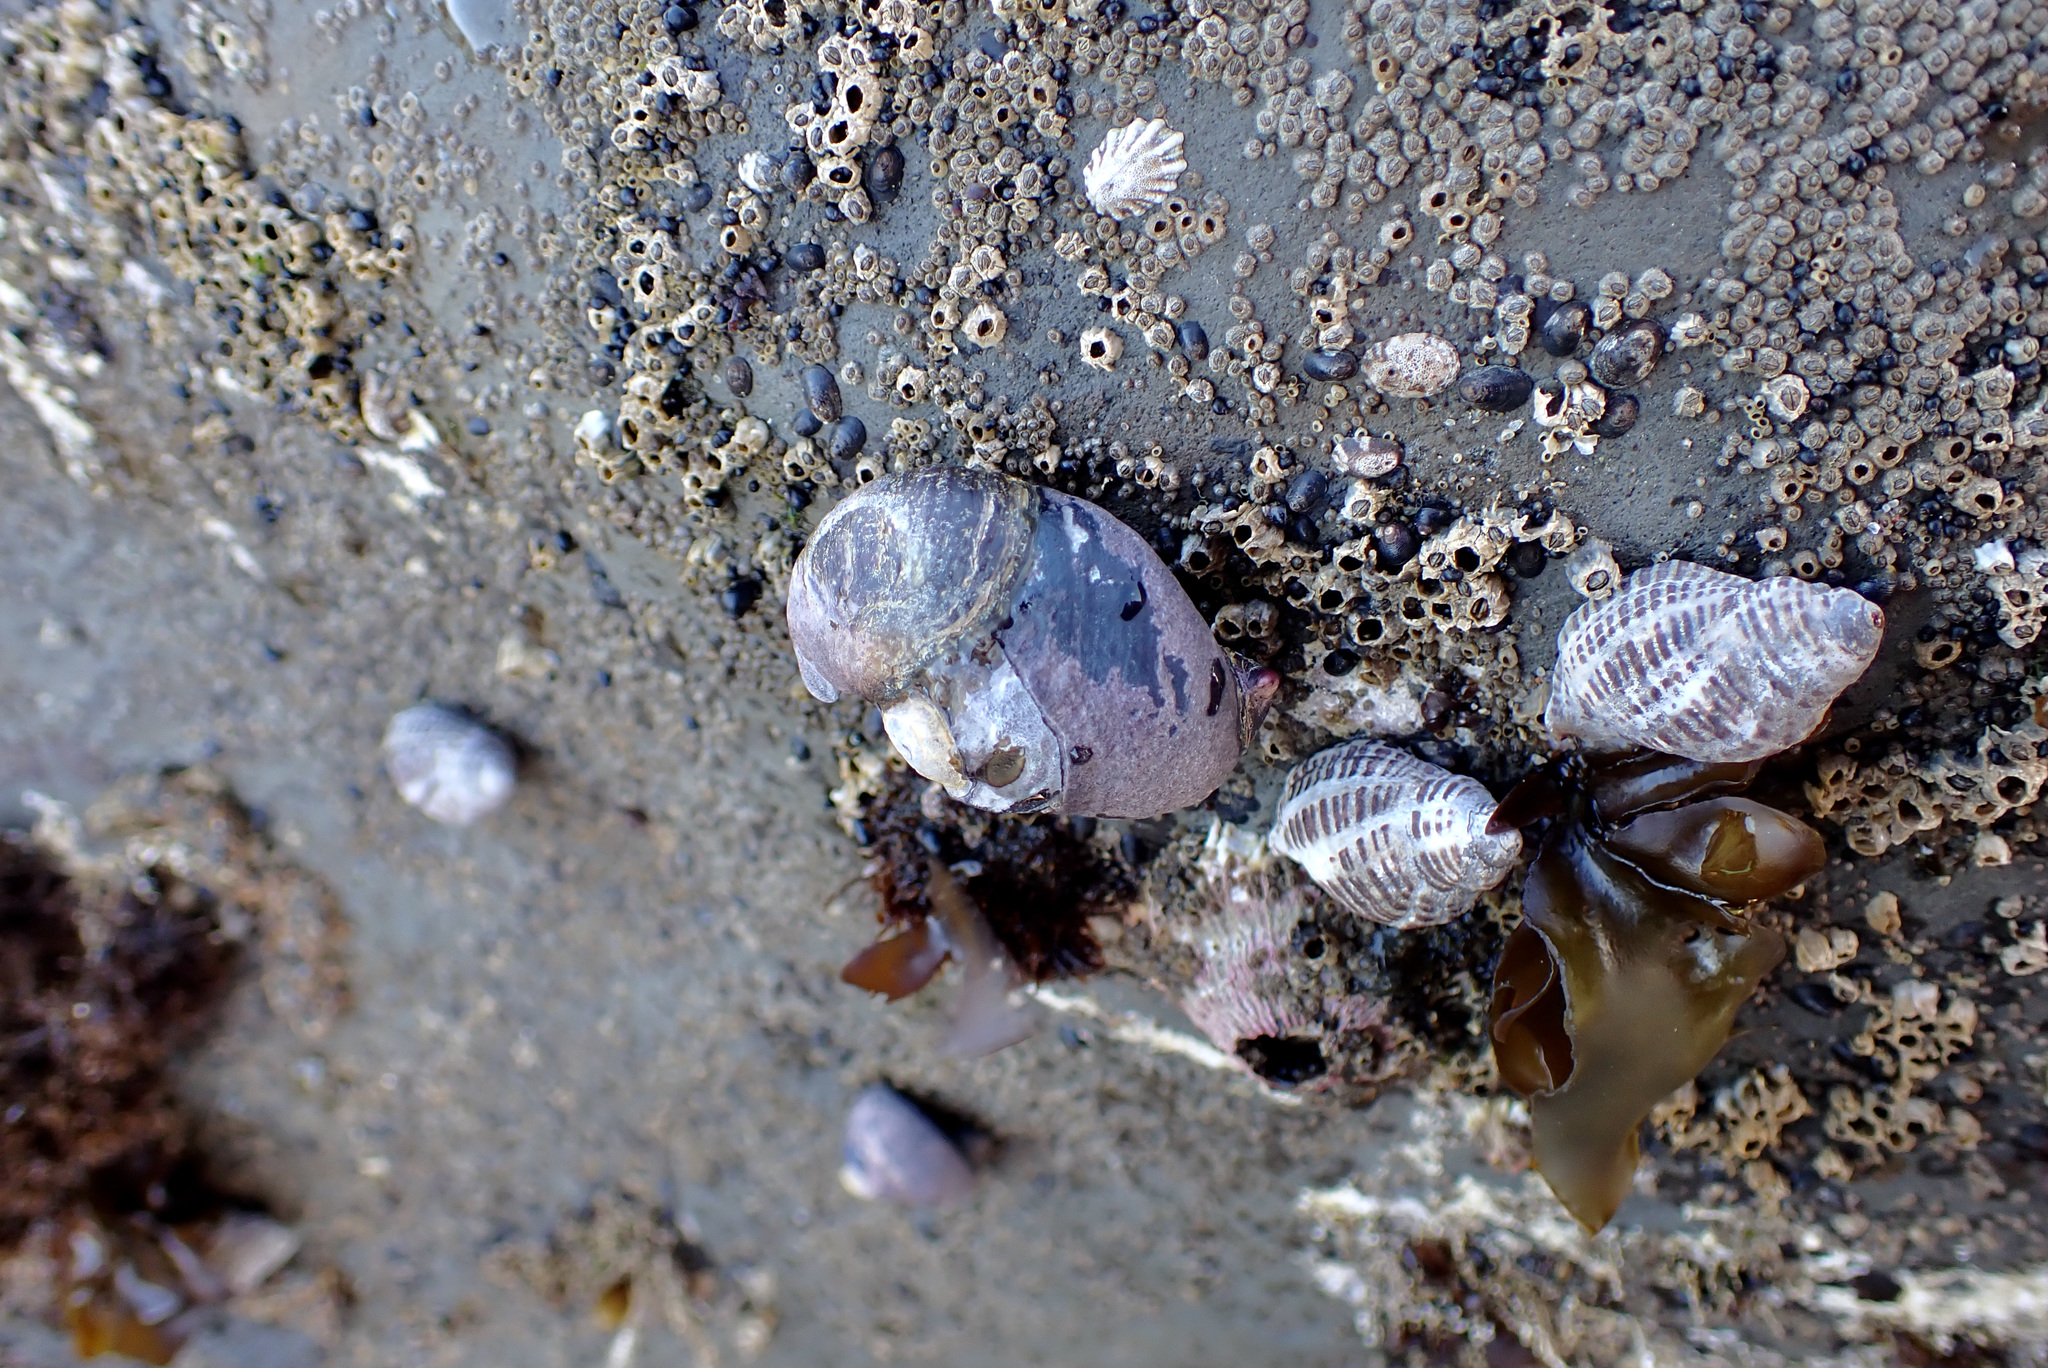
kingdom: Animalia
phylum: Mollusca
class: Gastropoda
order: Trochida
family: Tegulidae
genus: Tegula
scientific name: Tegula funebralis
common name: Black tegula
